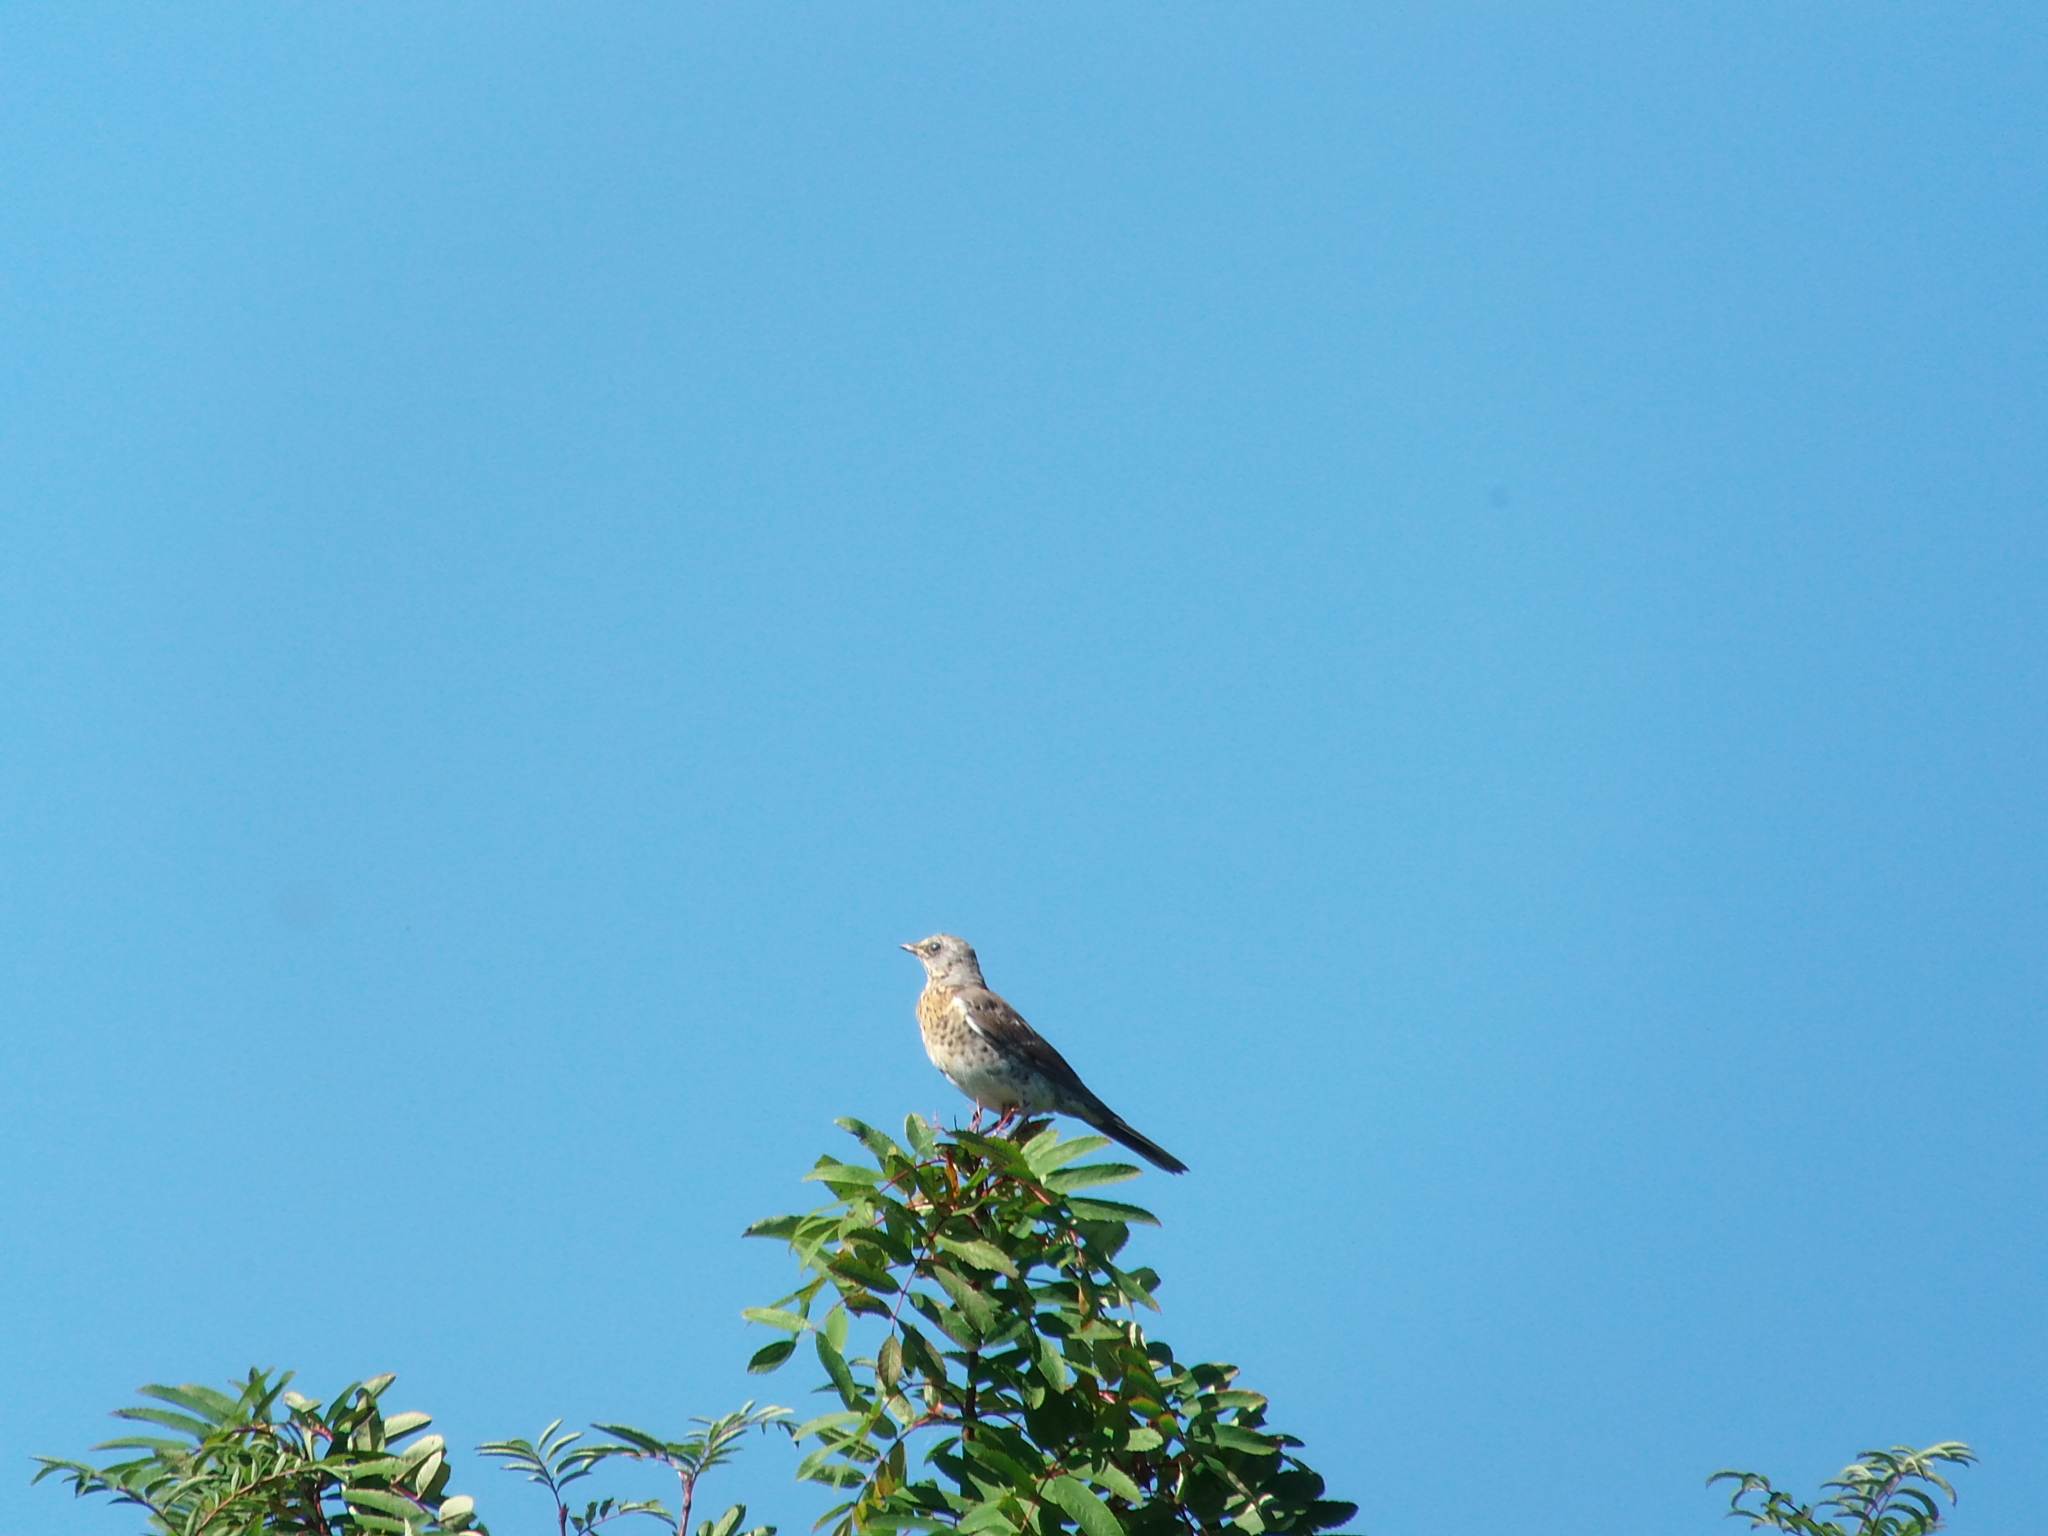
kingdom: Animalia
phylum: Chordata
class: Aves
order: Passeriformes
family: Turdidae
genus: Turdus
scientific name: Turdus pilaris
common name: Fieldfare
